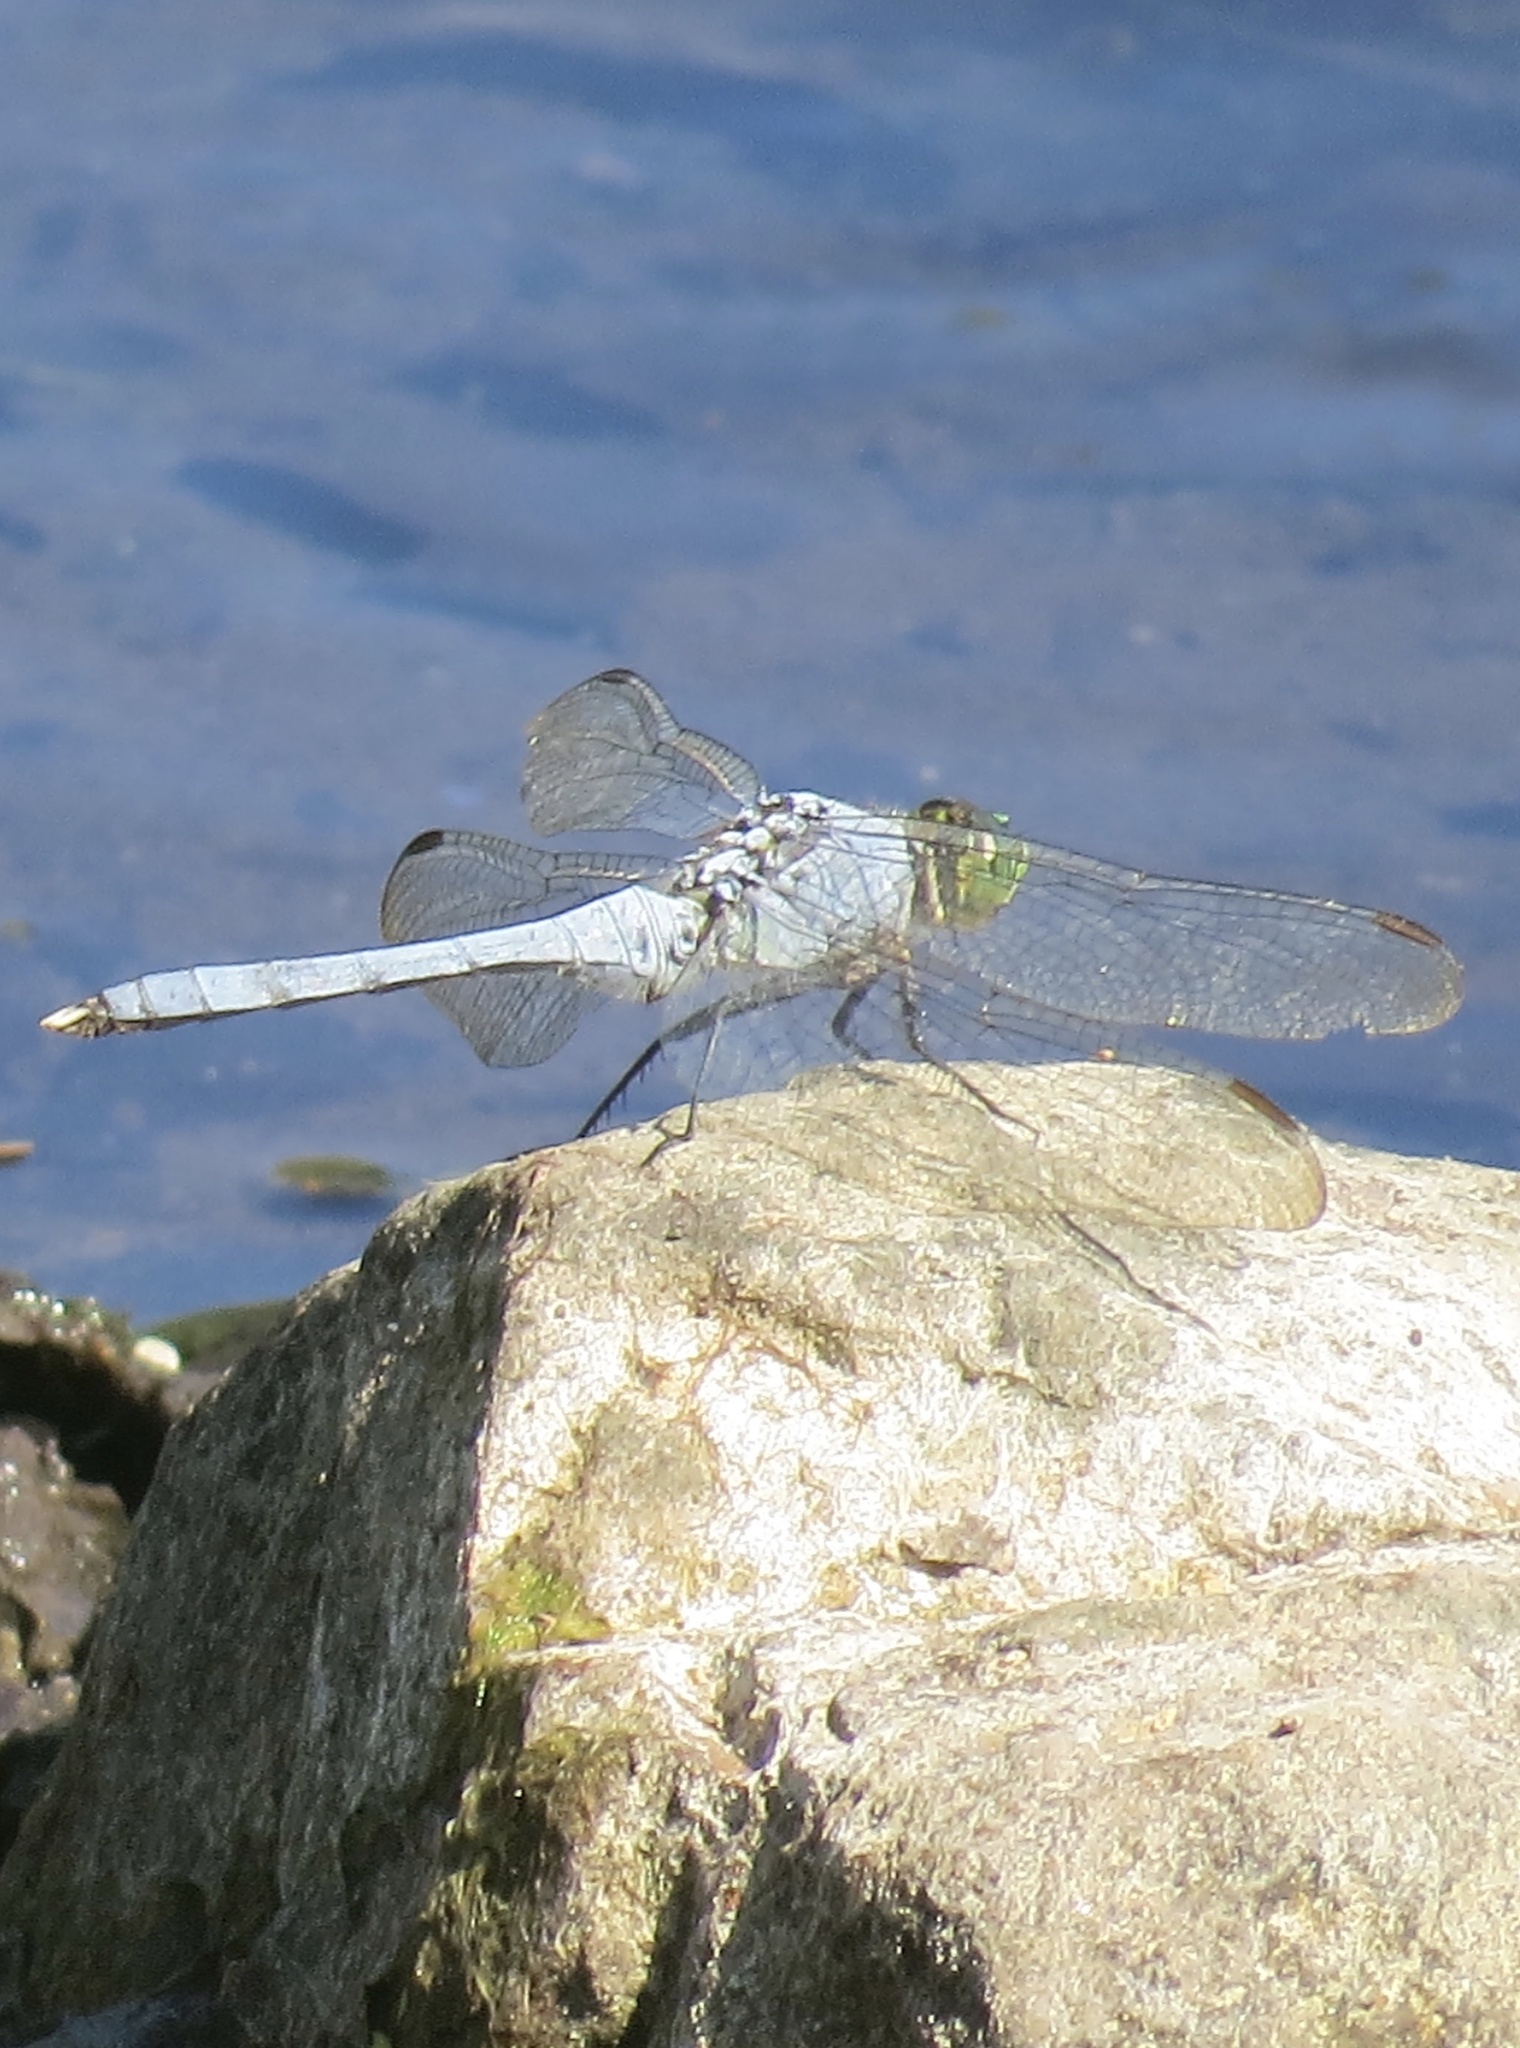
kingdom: Animalia
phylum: Arthropoda
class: Insecta
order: Odonata
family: Libellulidae
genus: Erythemis
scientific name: Erythemis simplicicollis
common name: Eastern pondhawk
